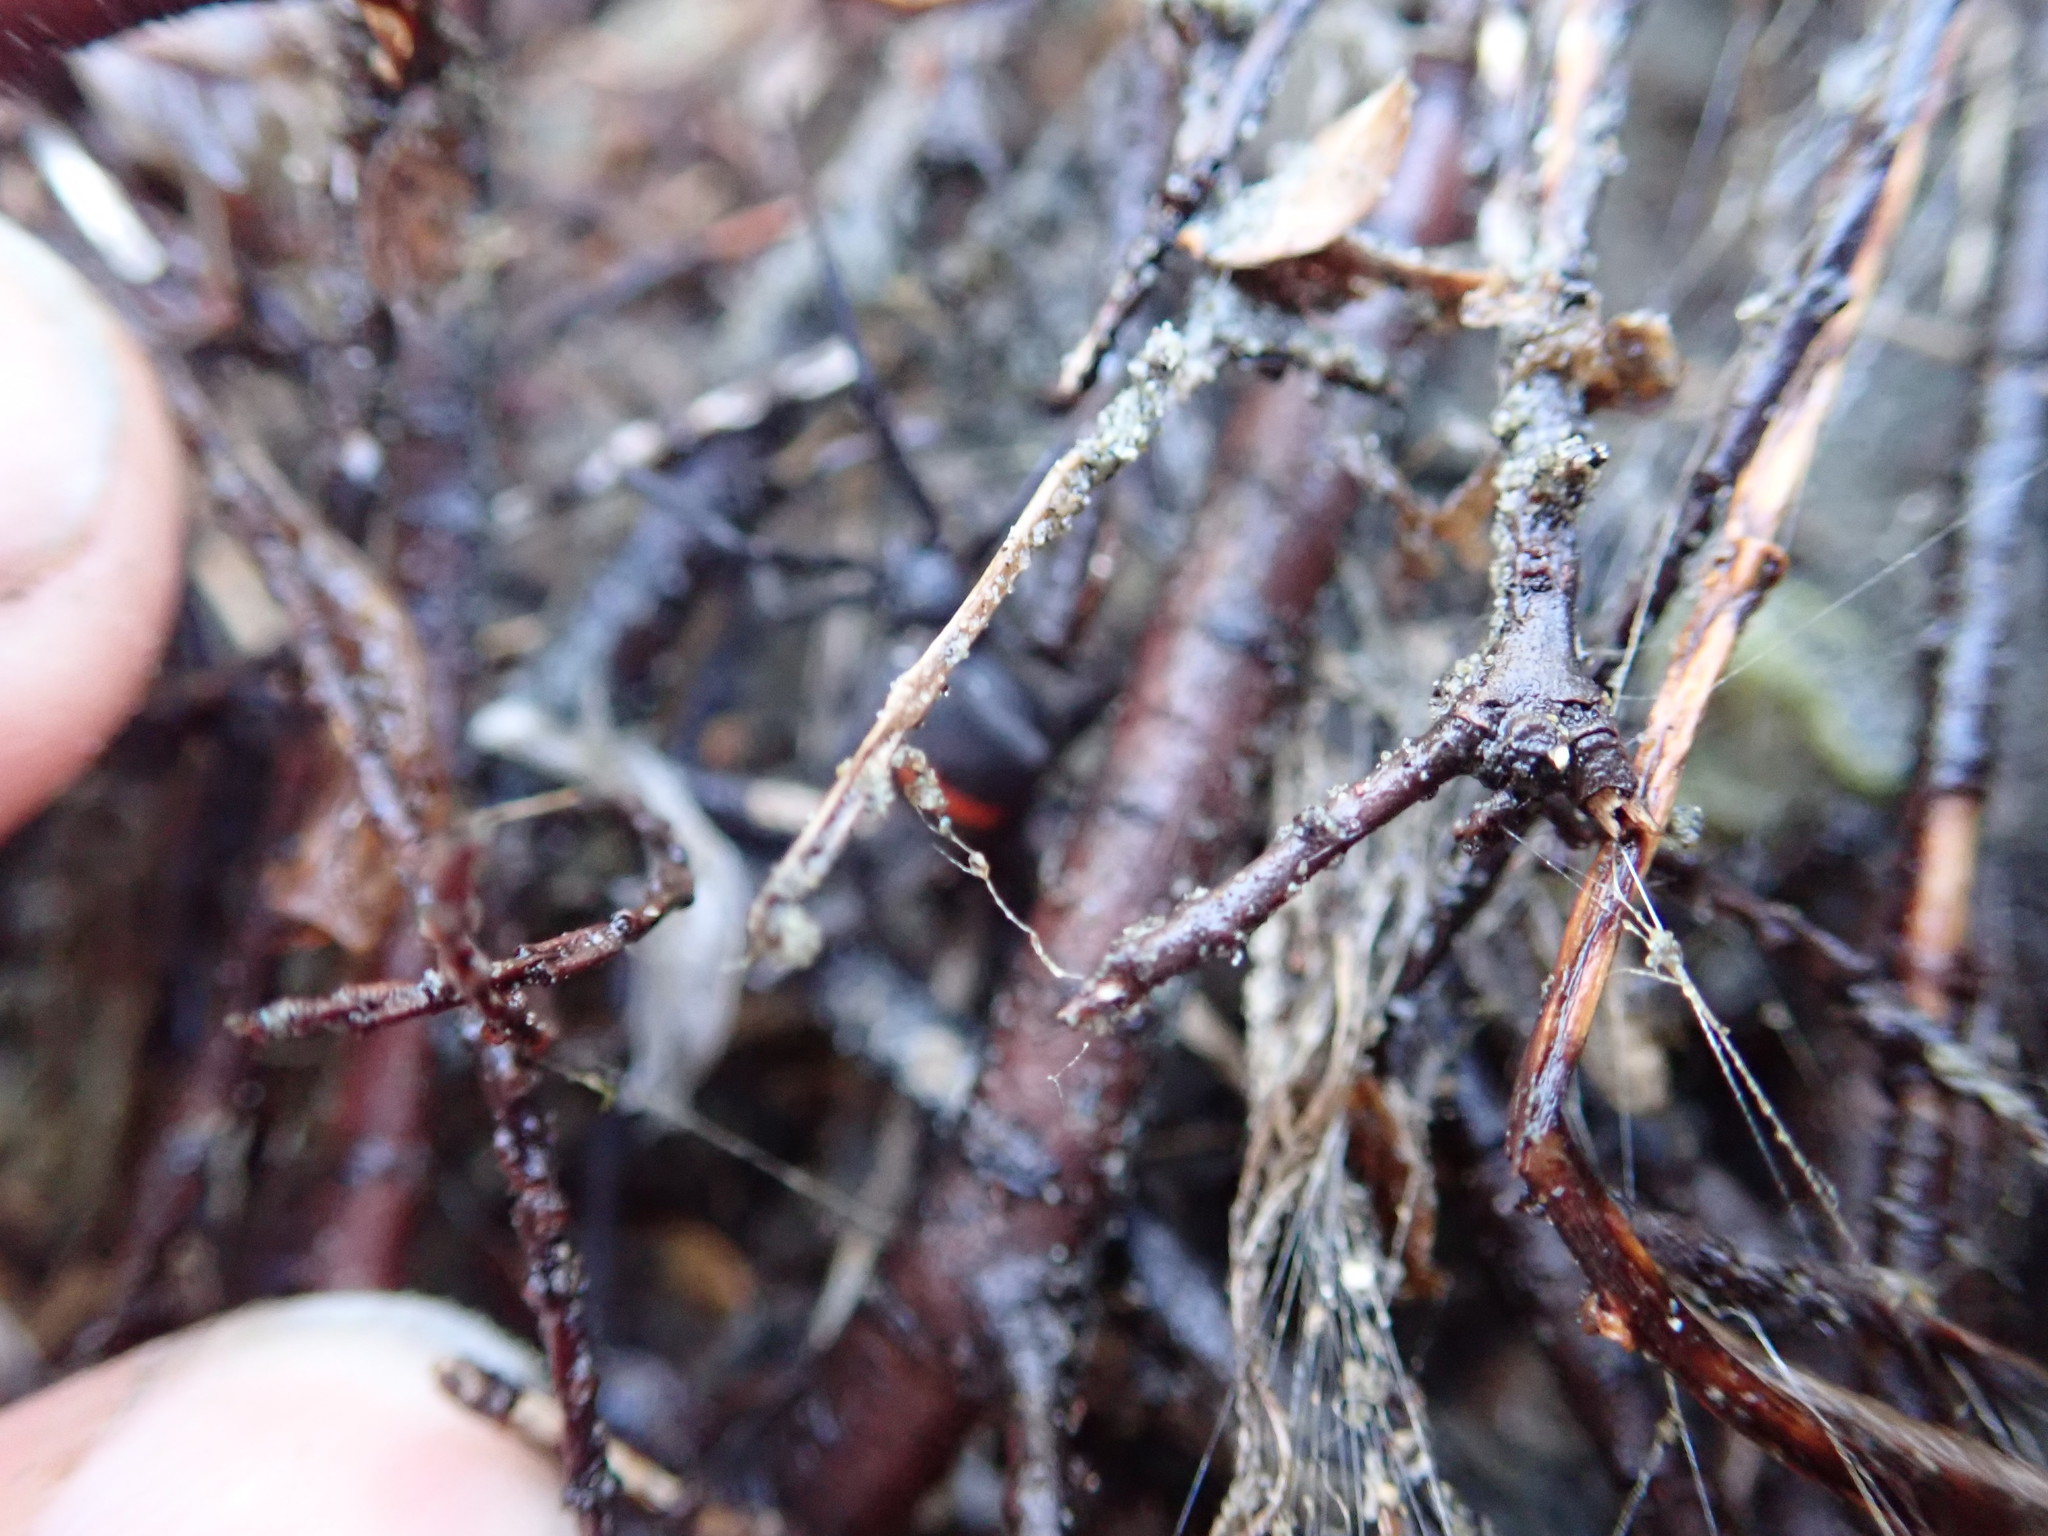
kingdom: Animalia
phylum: Arthropoda
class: Arachnida
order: Araneae
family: Theridiidae
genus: Latrodectus
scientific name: Latrodectus katipo
